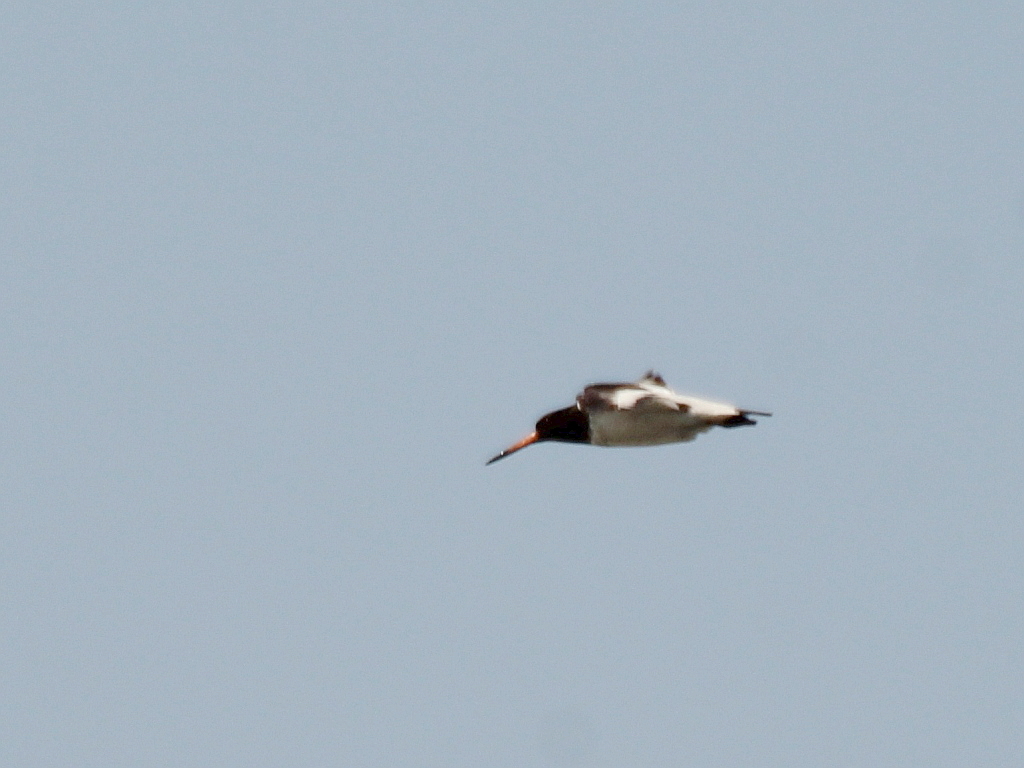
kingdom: Animalia
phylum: Chordata
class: Aves
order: Charadriiformes
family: Haematopodidae
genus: Haematopus
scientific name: Haematopus ostralegus
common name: Eurasian oystercatcher
